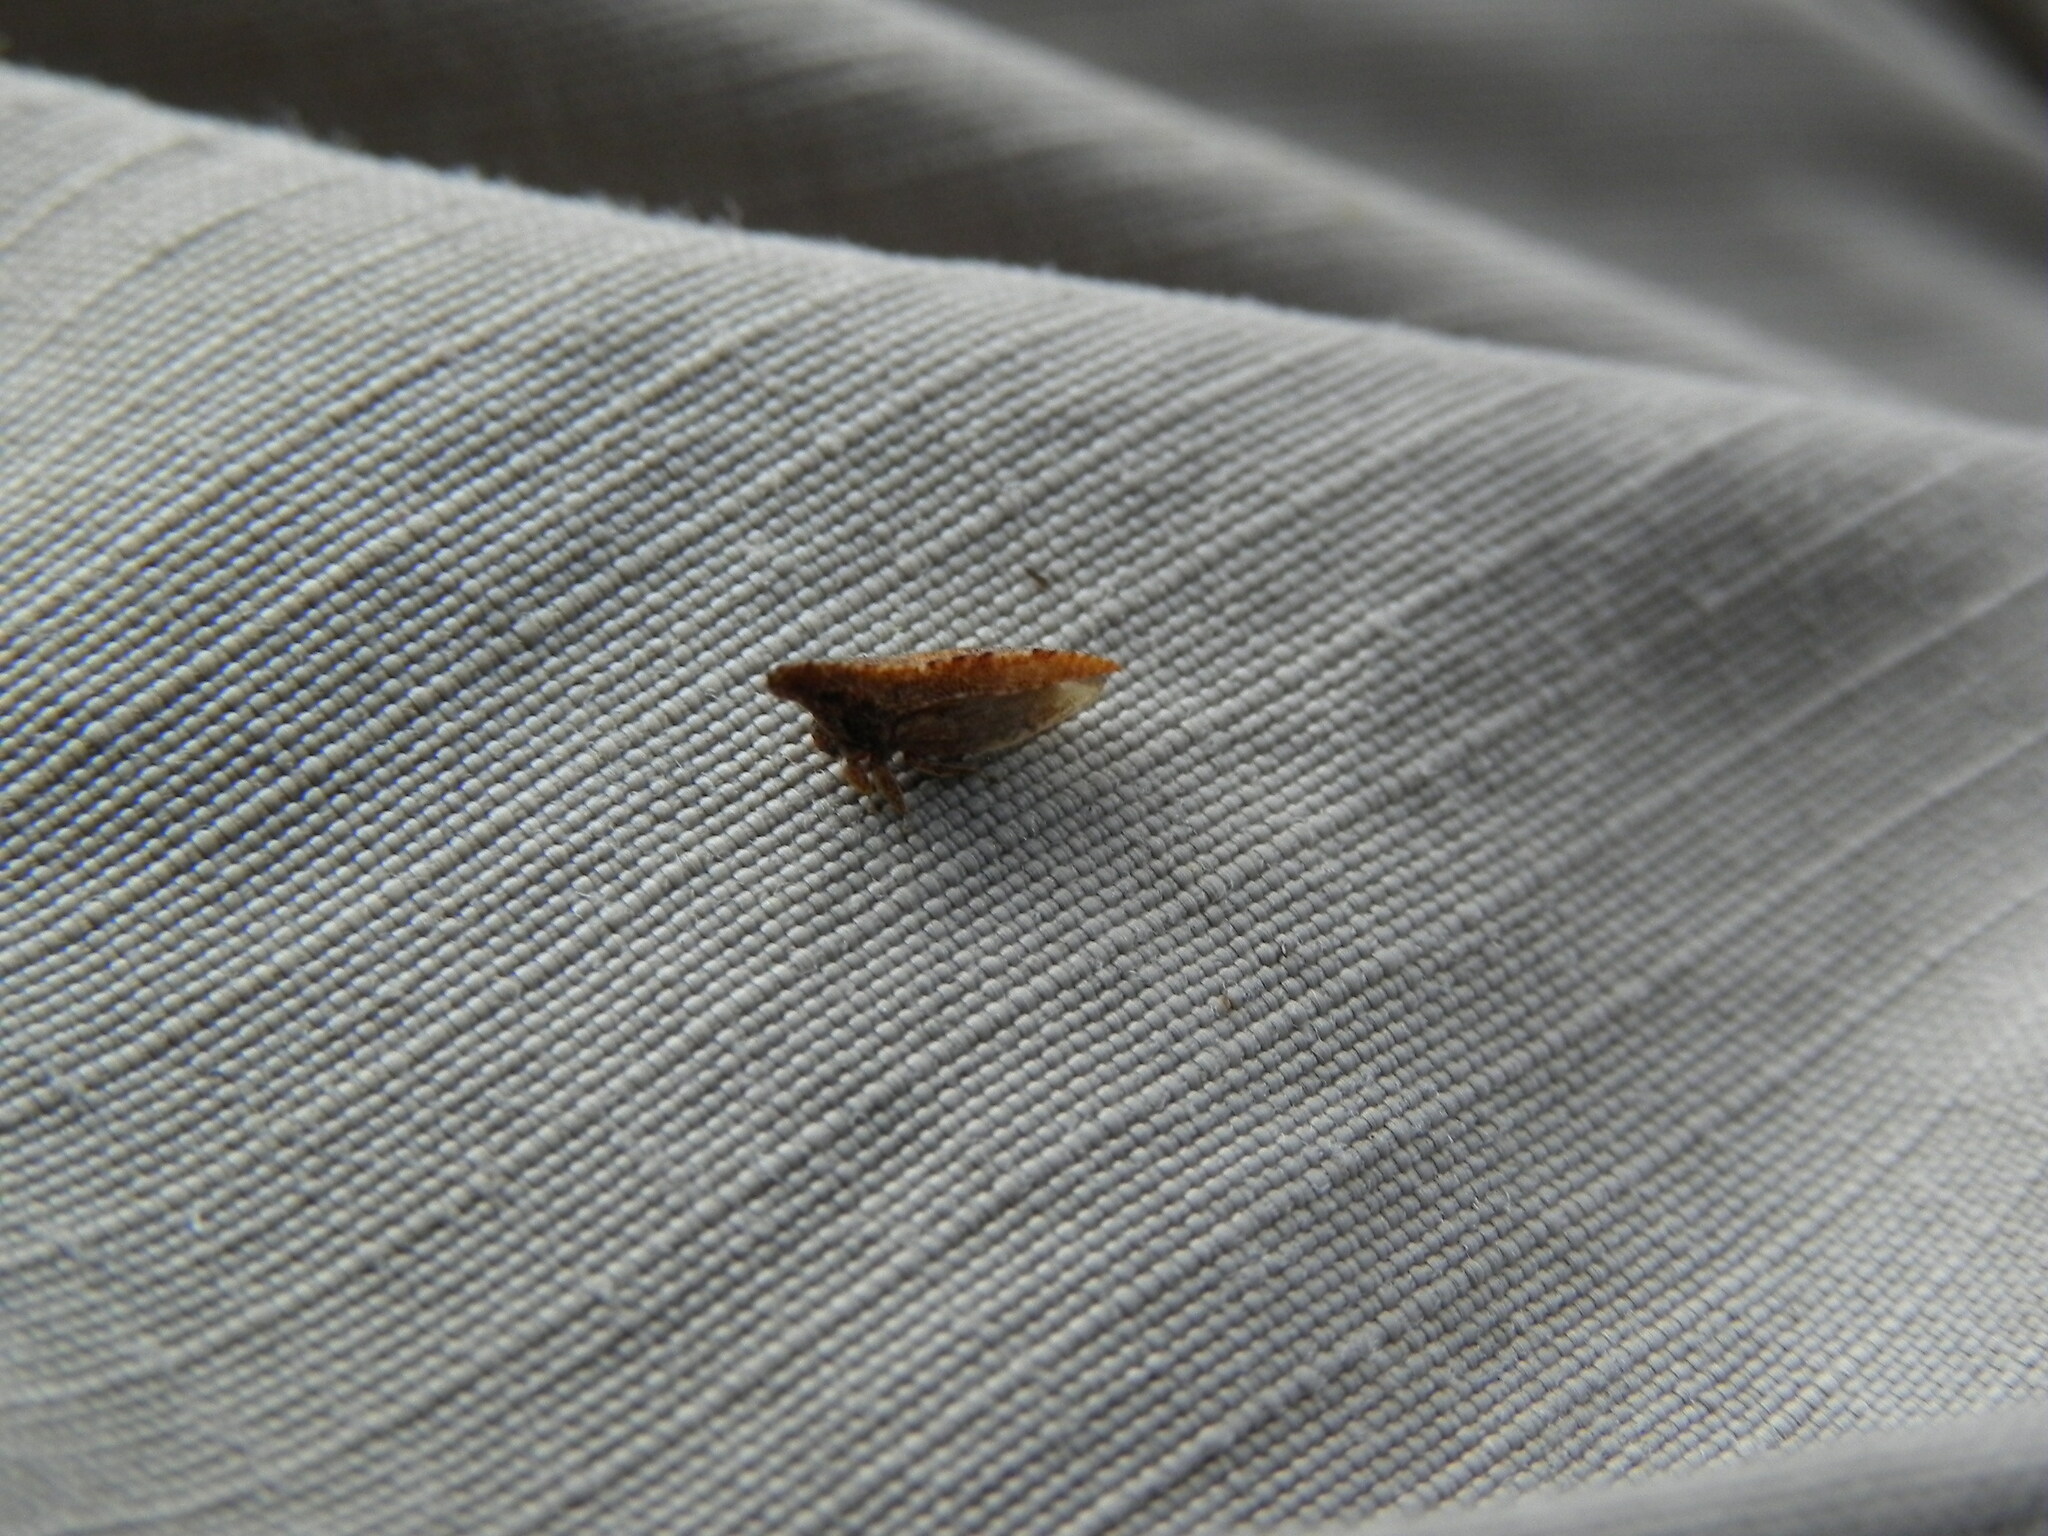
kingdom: Animalia
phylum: Arthropoda
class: Insecta
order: Hemiptera
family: Membracidae
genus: Philya
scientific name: Philya californensis
